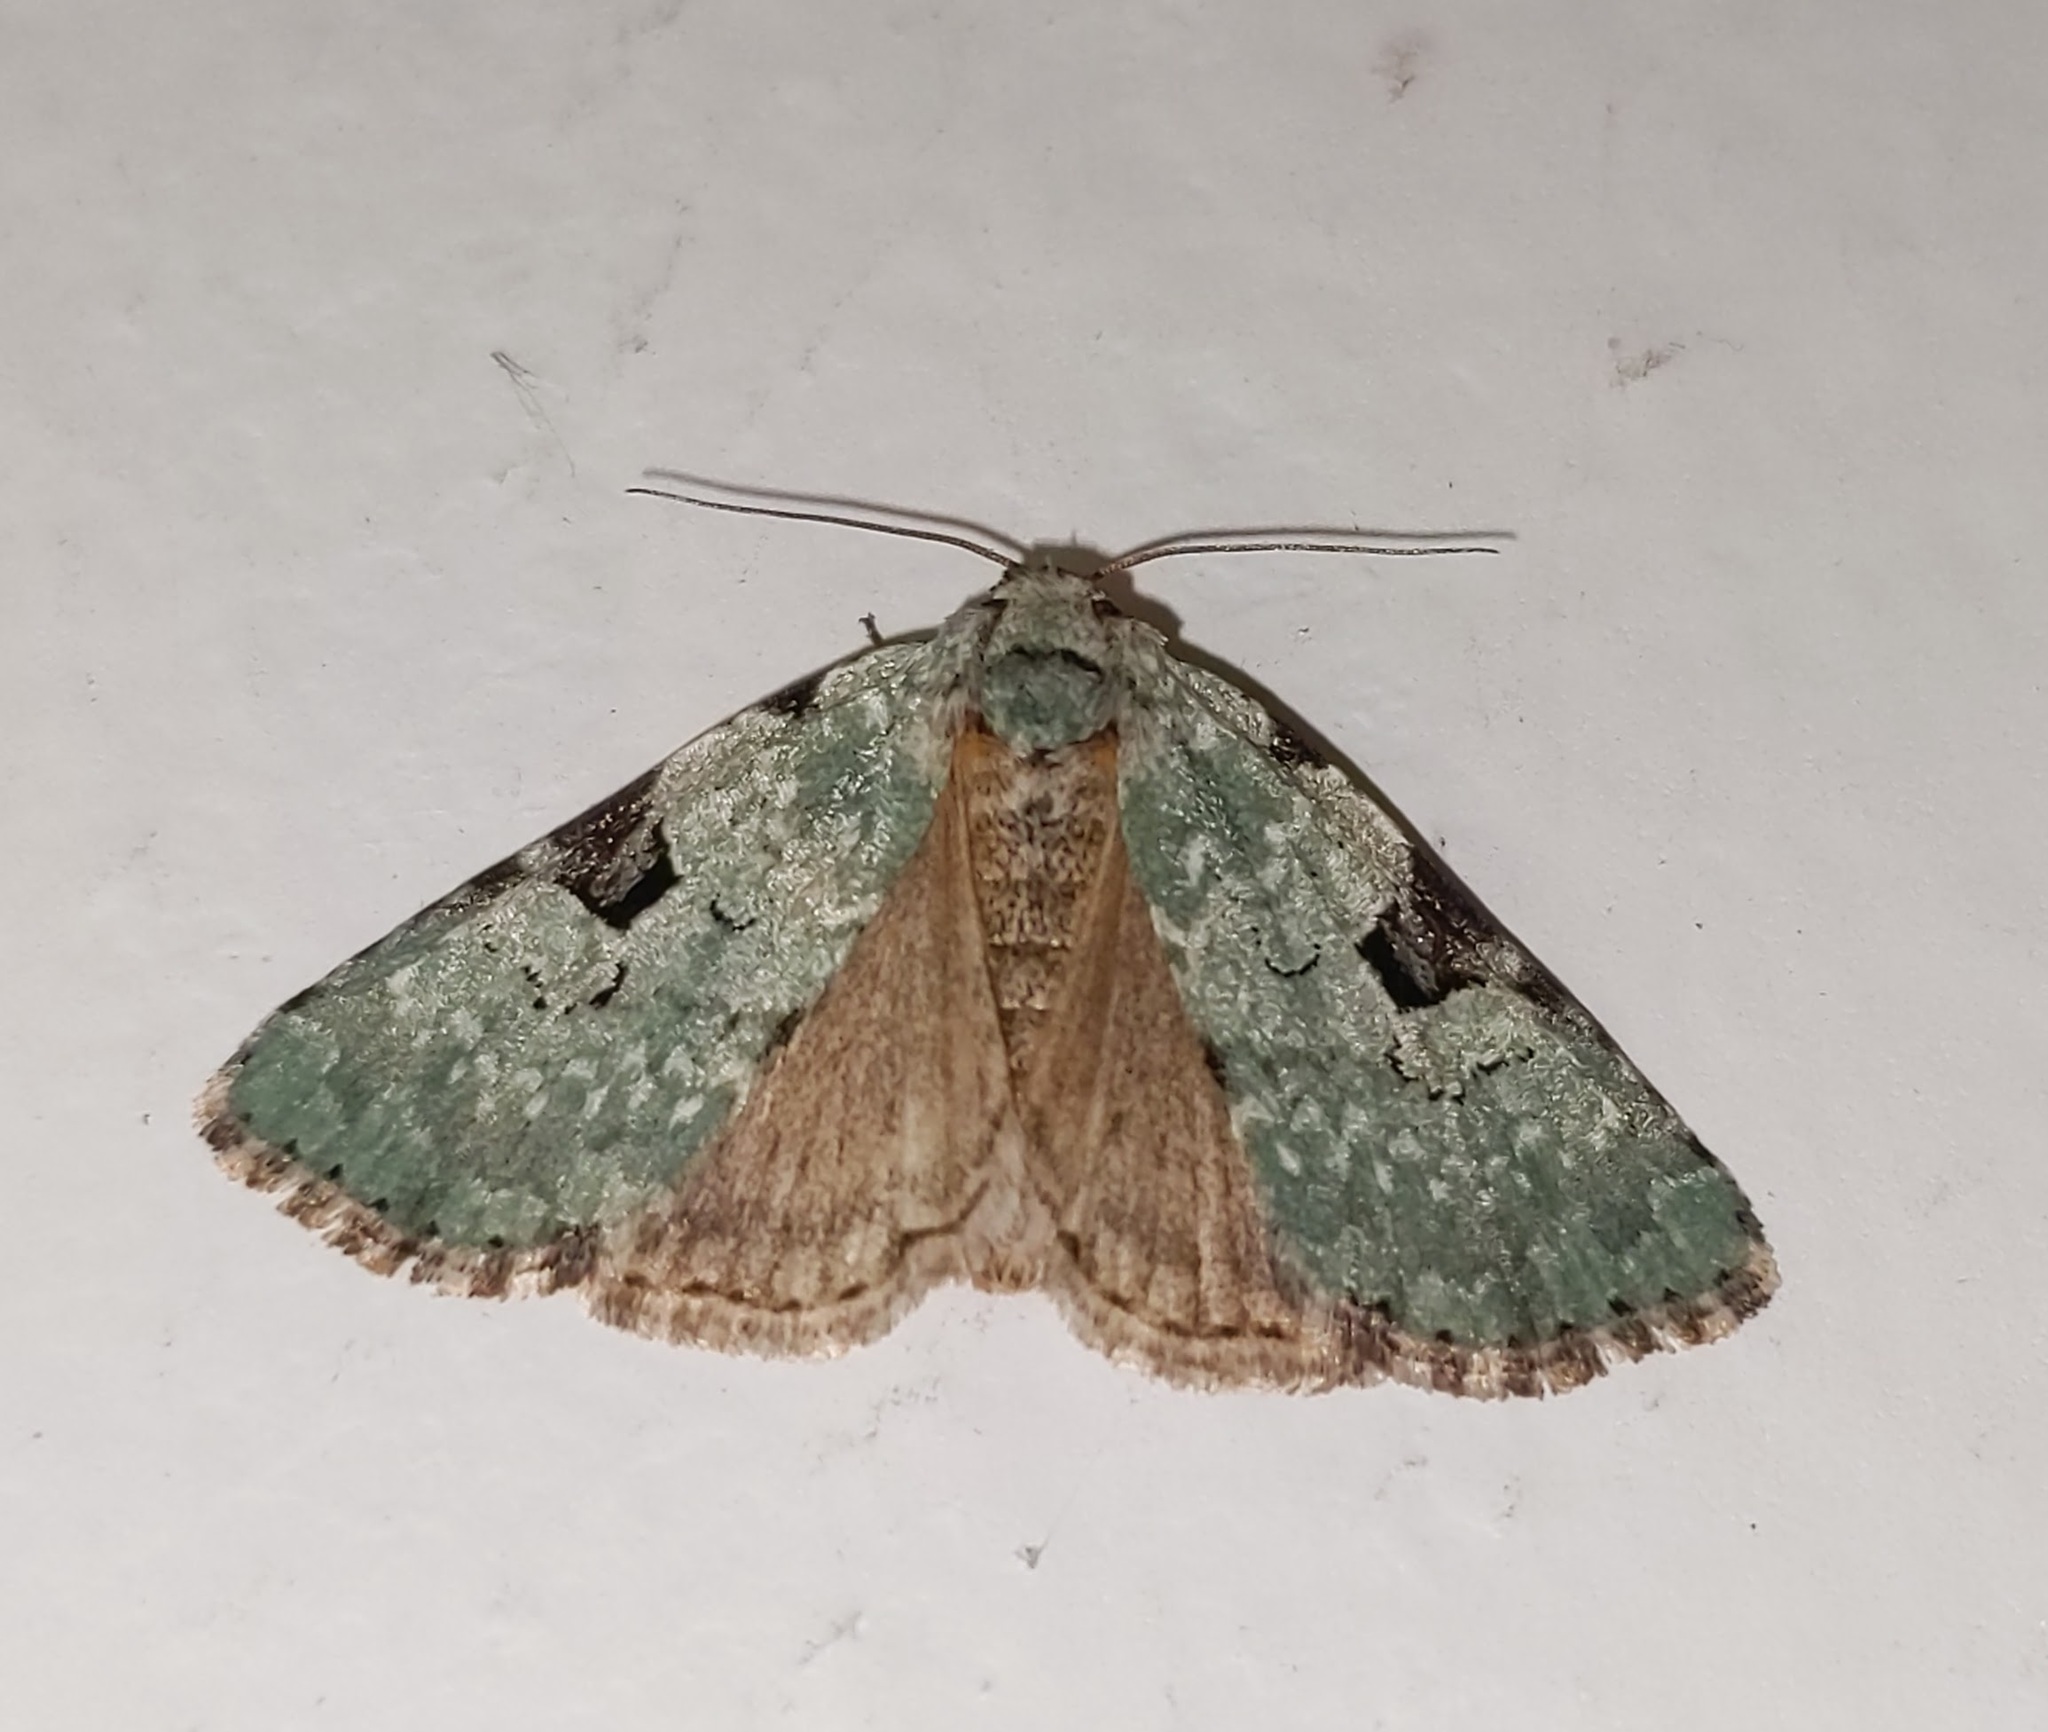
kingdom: Animalia
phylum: Arthropoda
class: Insecta
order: Lepidoptera
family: Noctuidae
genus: Leuconycta
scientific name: Leuconycta diphteroides
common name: Green leuconycta moth
